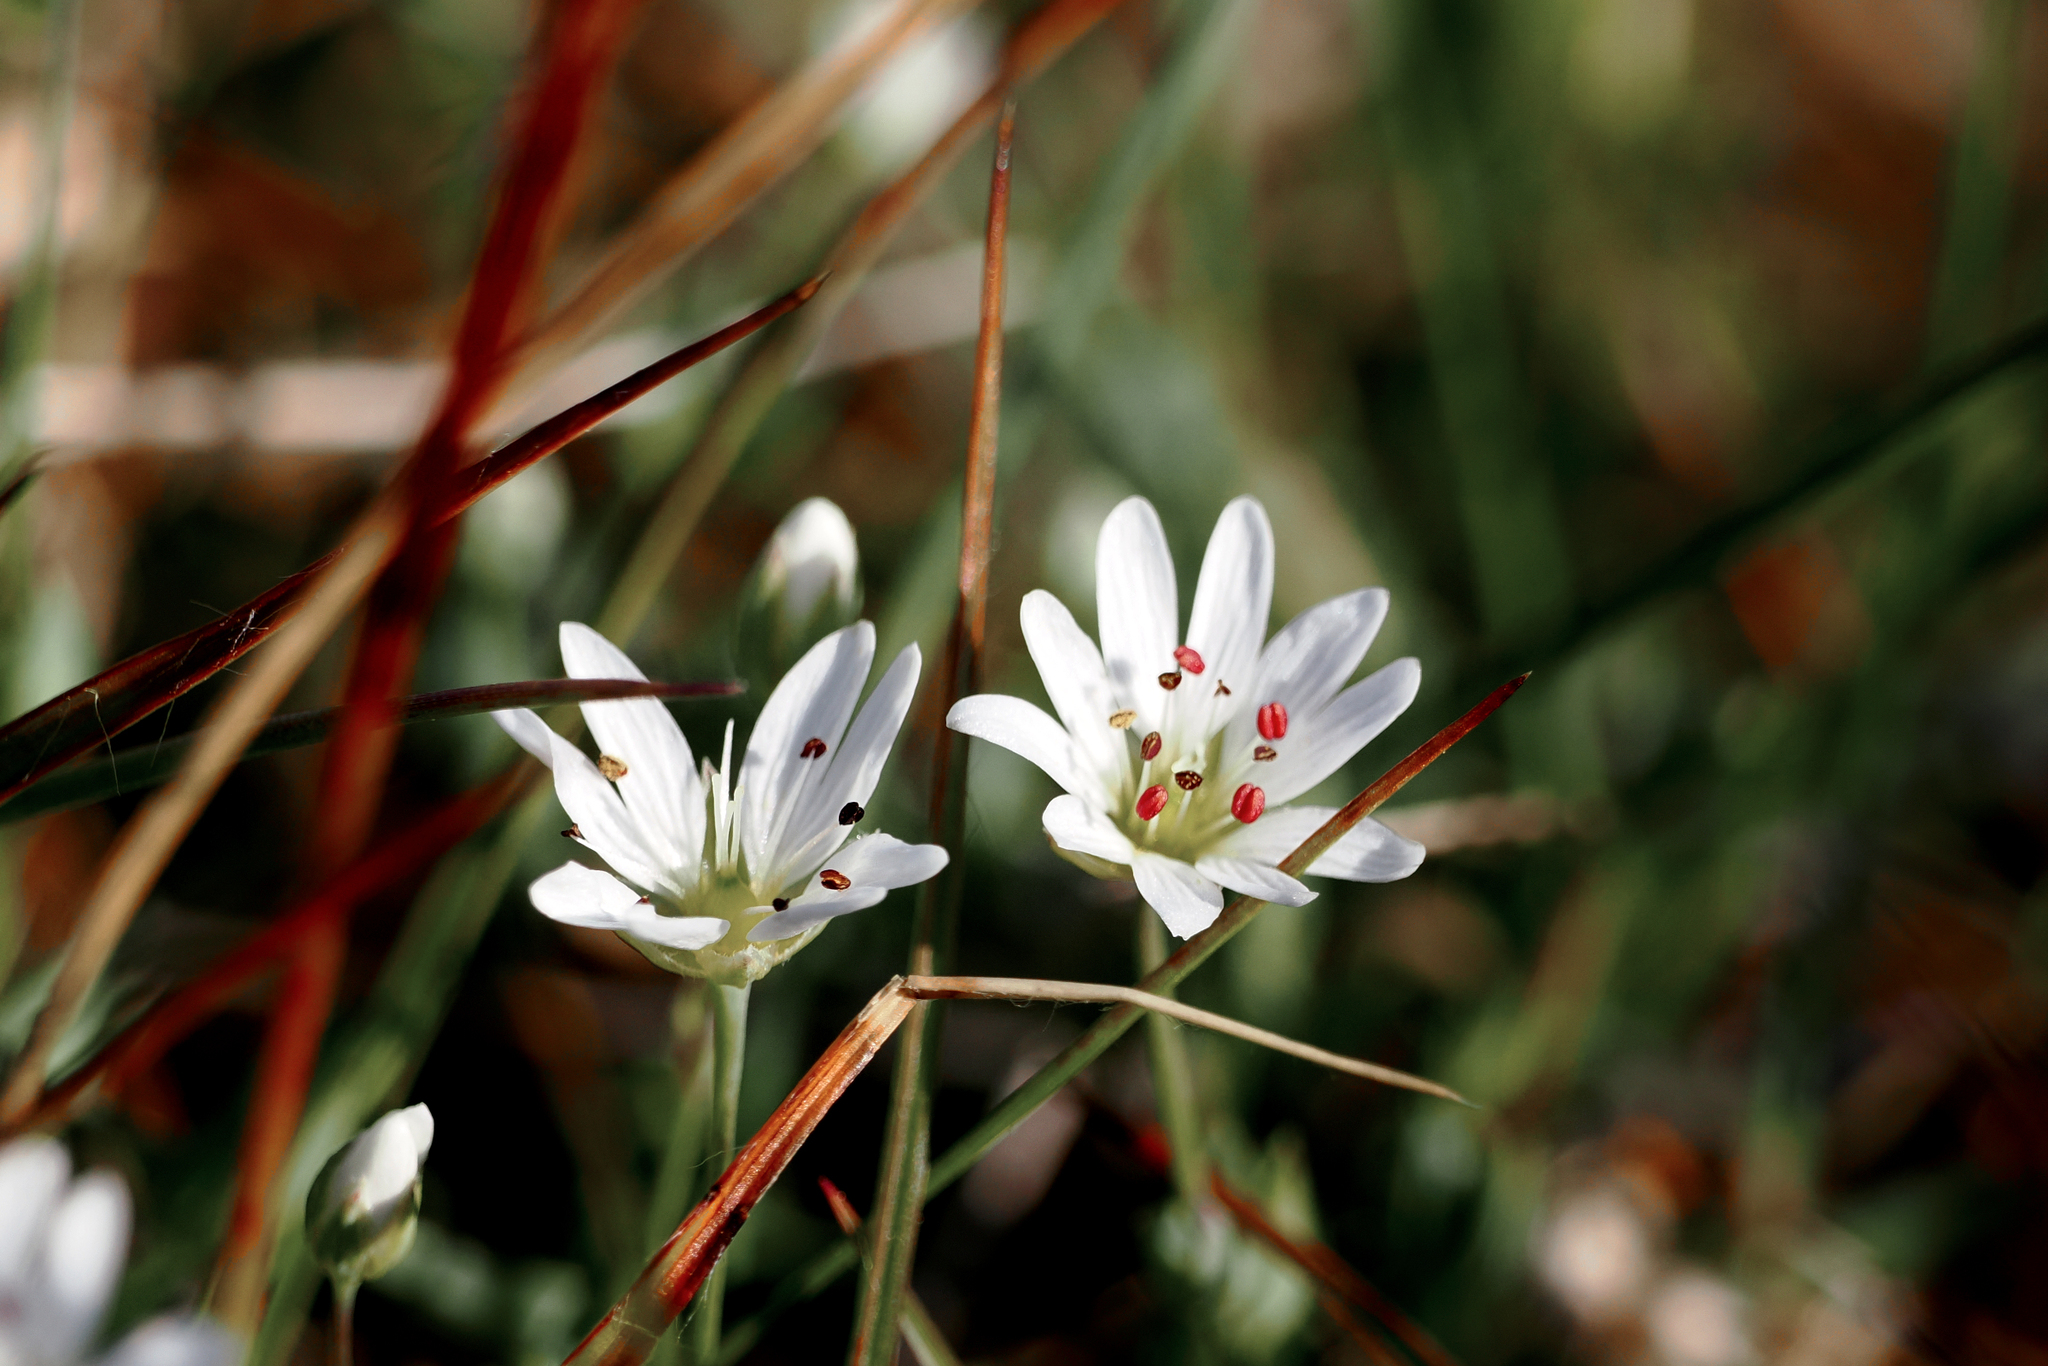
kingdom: Plantae
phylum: Tracheophyta
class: Magnoliopsida
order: Caryophyllales
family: Caryophyllaceae
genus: Stellaria
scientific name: Stellaria longipes
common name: Goldie's starwort
